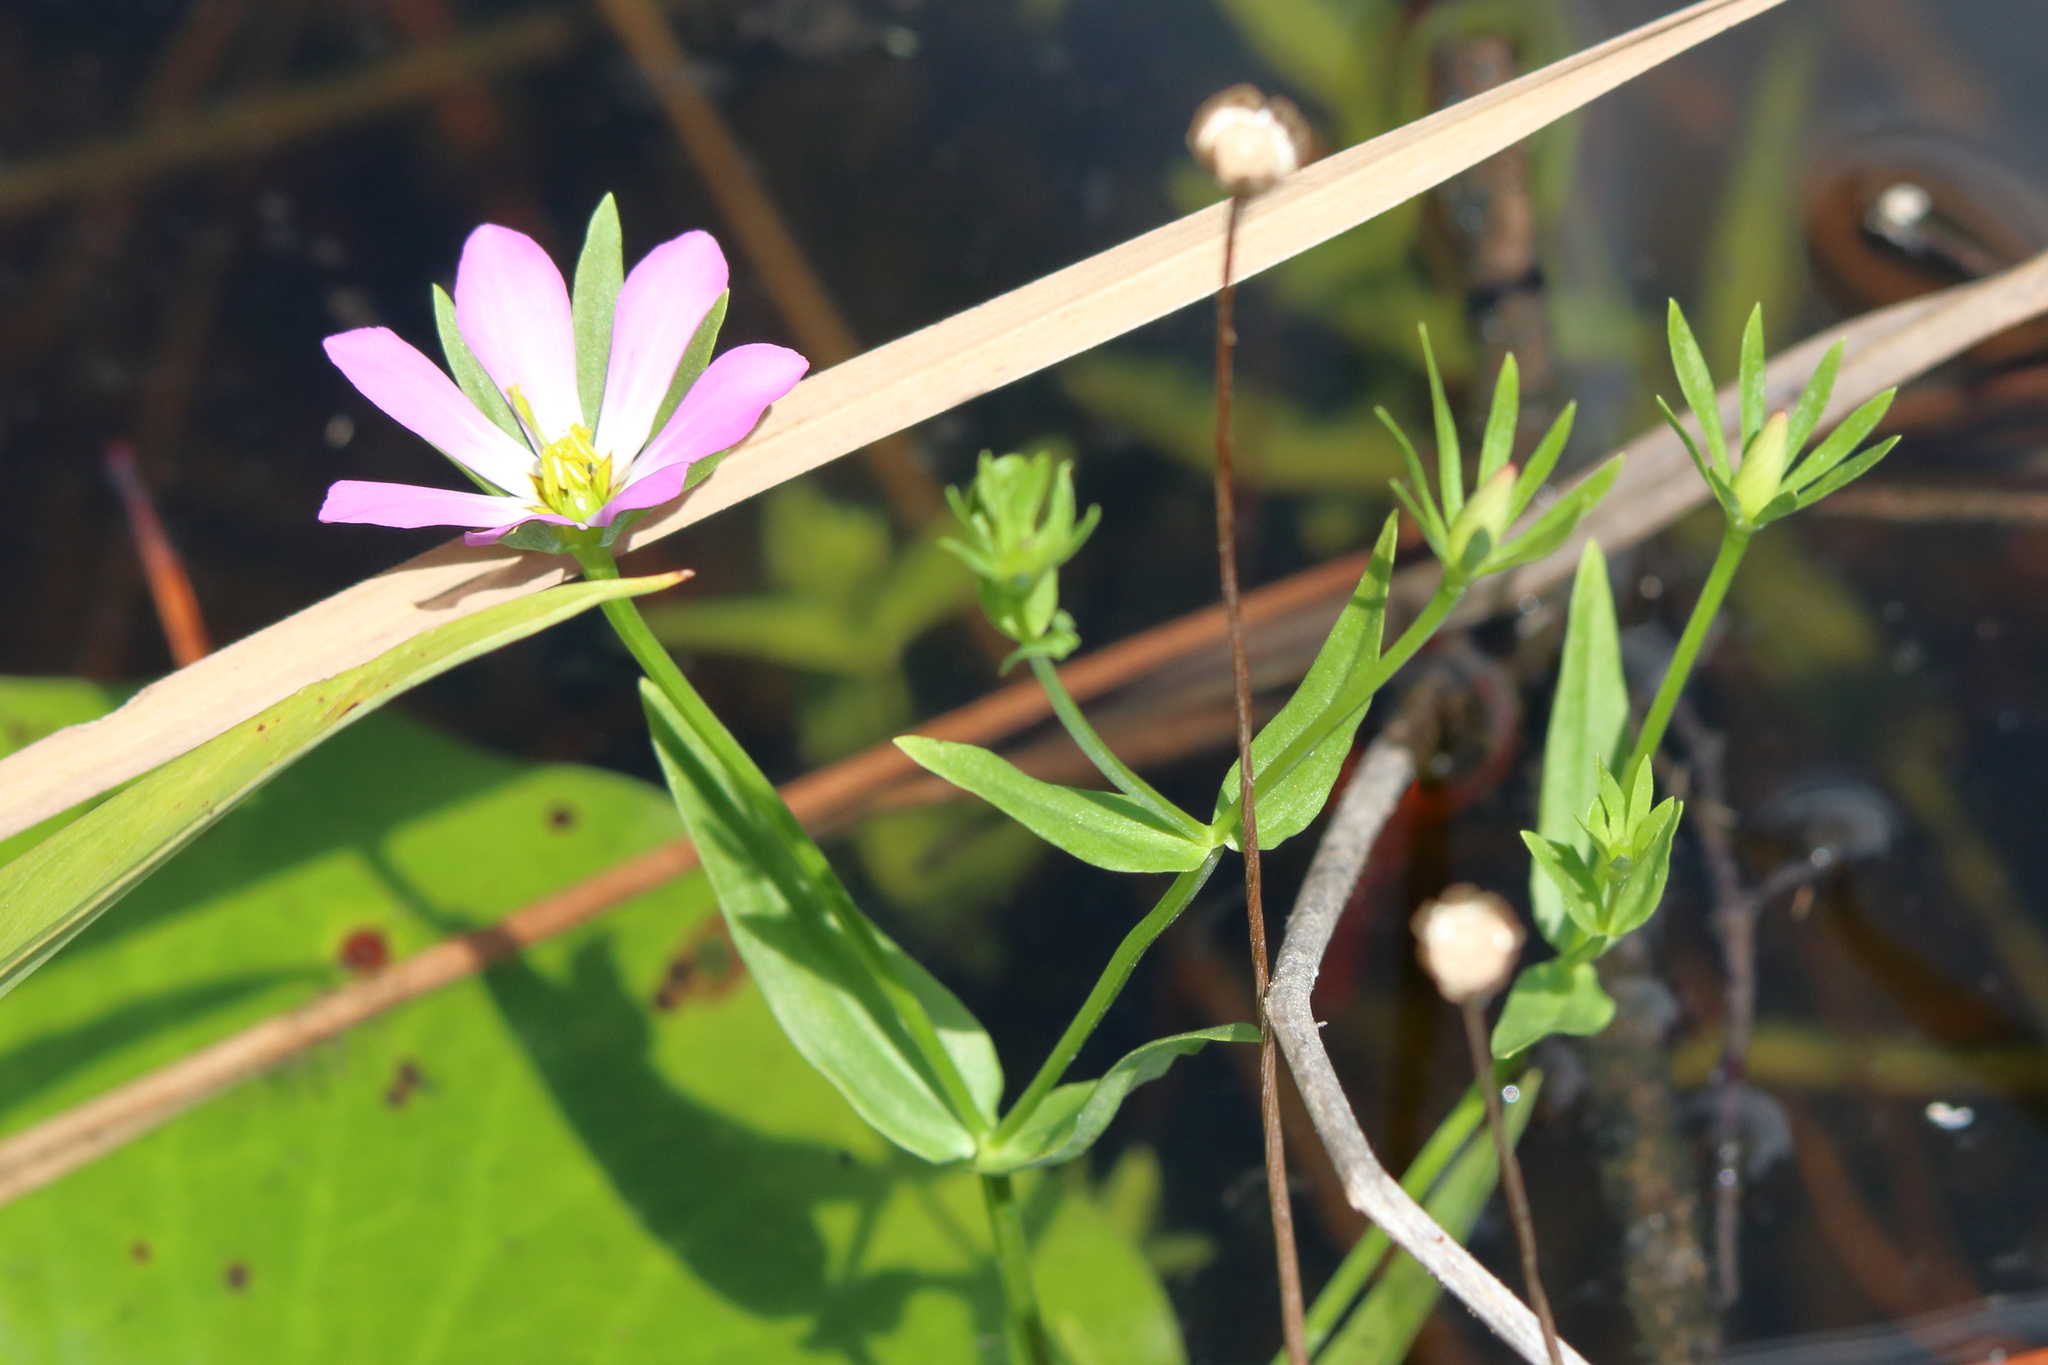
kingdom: Plantae
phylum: Tracheophyta
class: Magnoliopsida
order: Gentianales
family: Gentianaceae
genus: Sabatia
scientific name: Sabatia calycina
